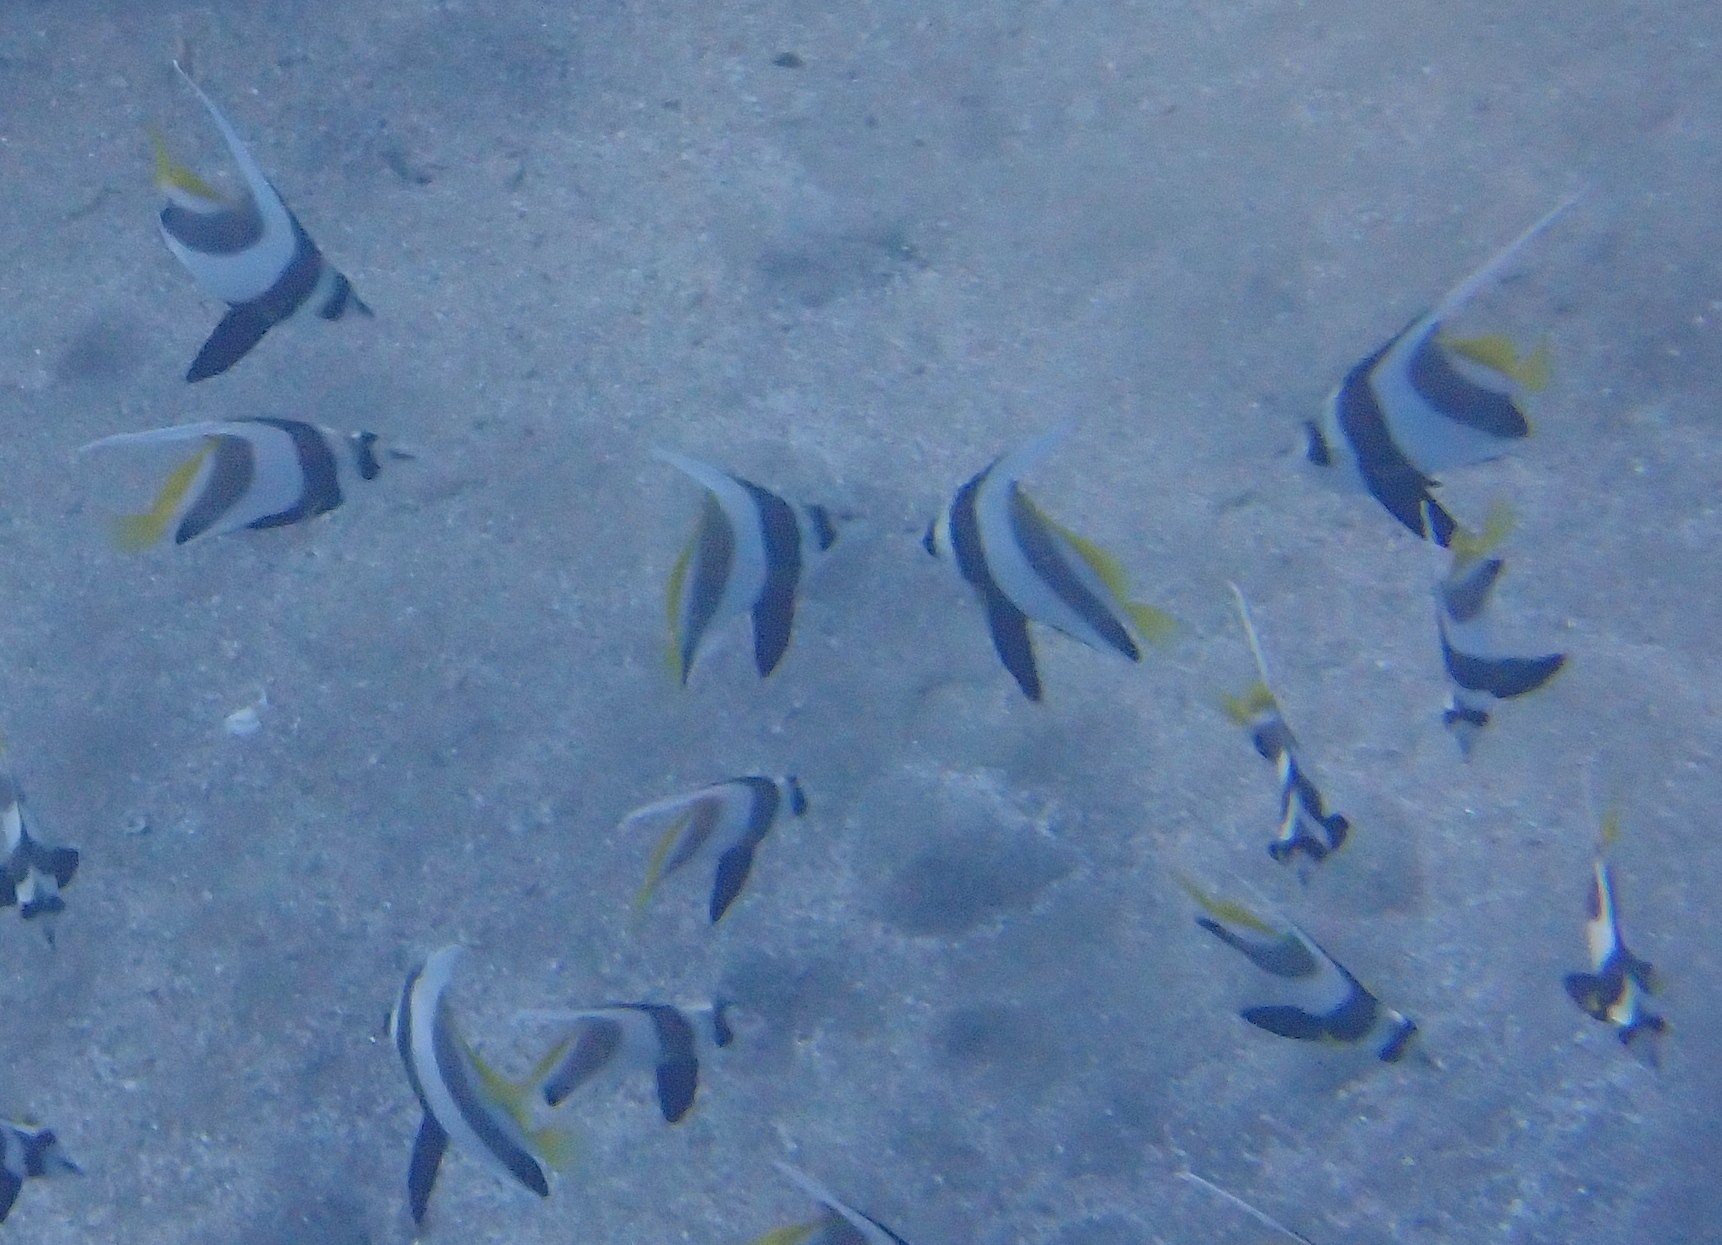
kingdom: Animalia
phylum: Chordata
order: Perciformes
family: Chaetodontidae
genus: Heniochus
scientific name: Heniochus diphreutes
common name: Pennantfish
